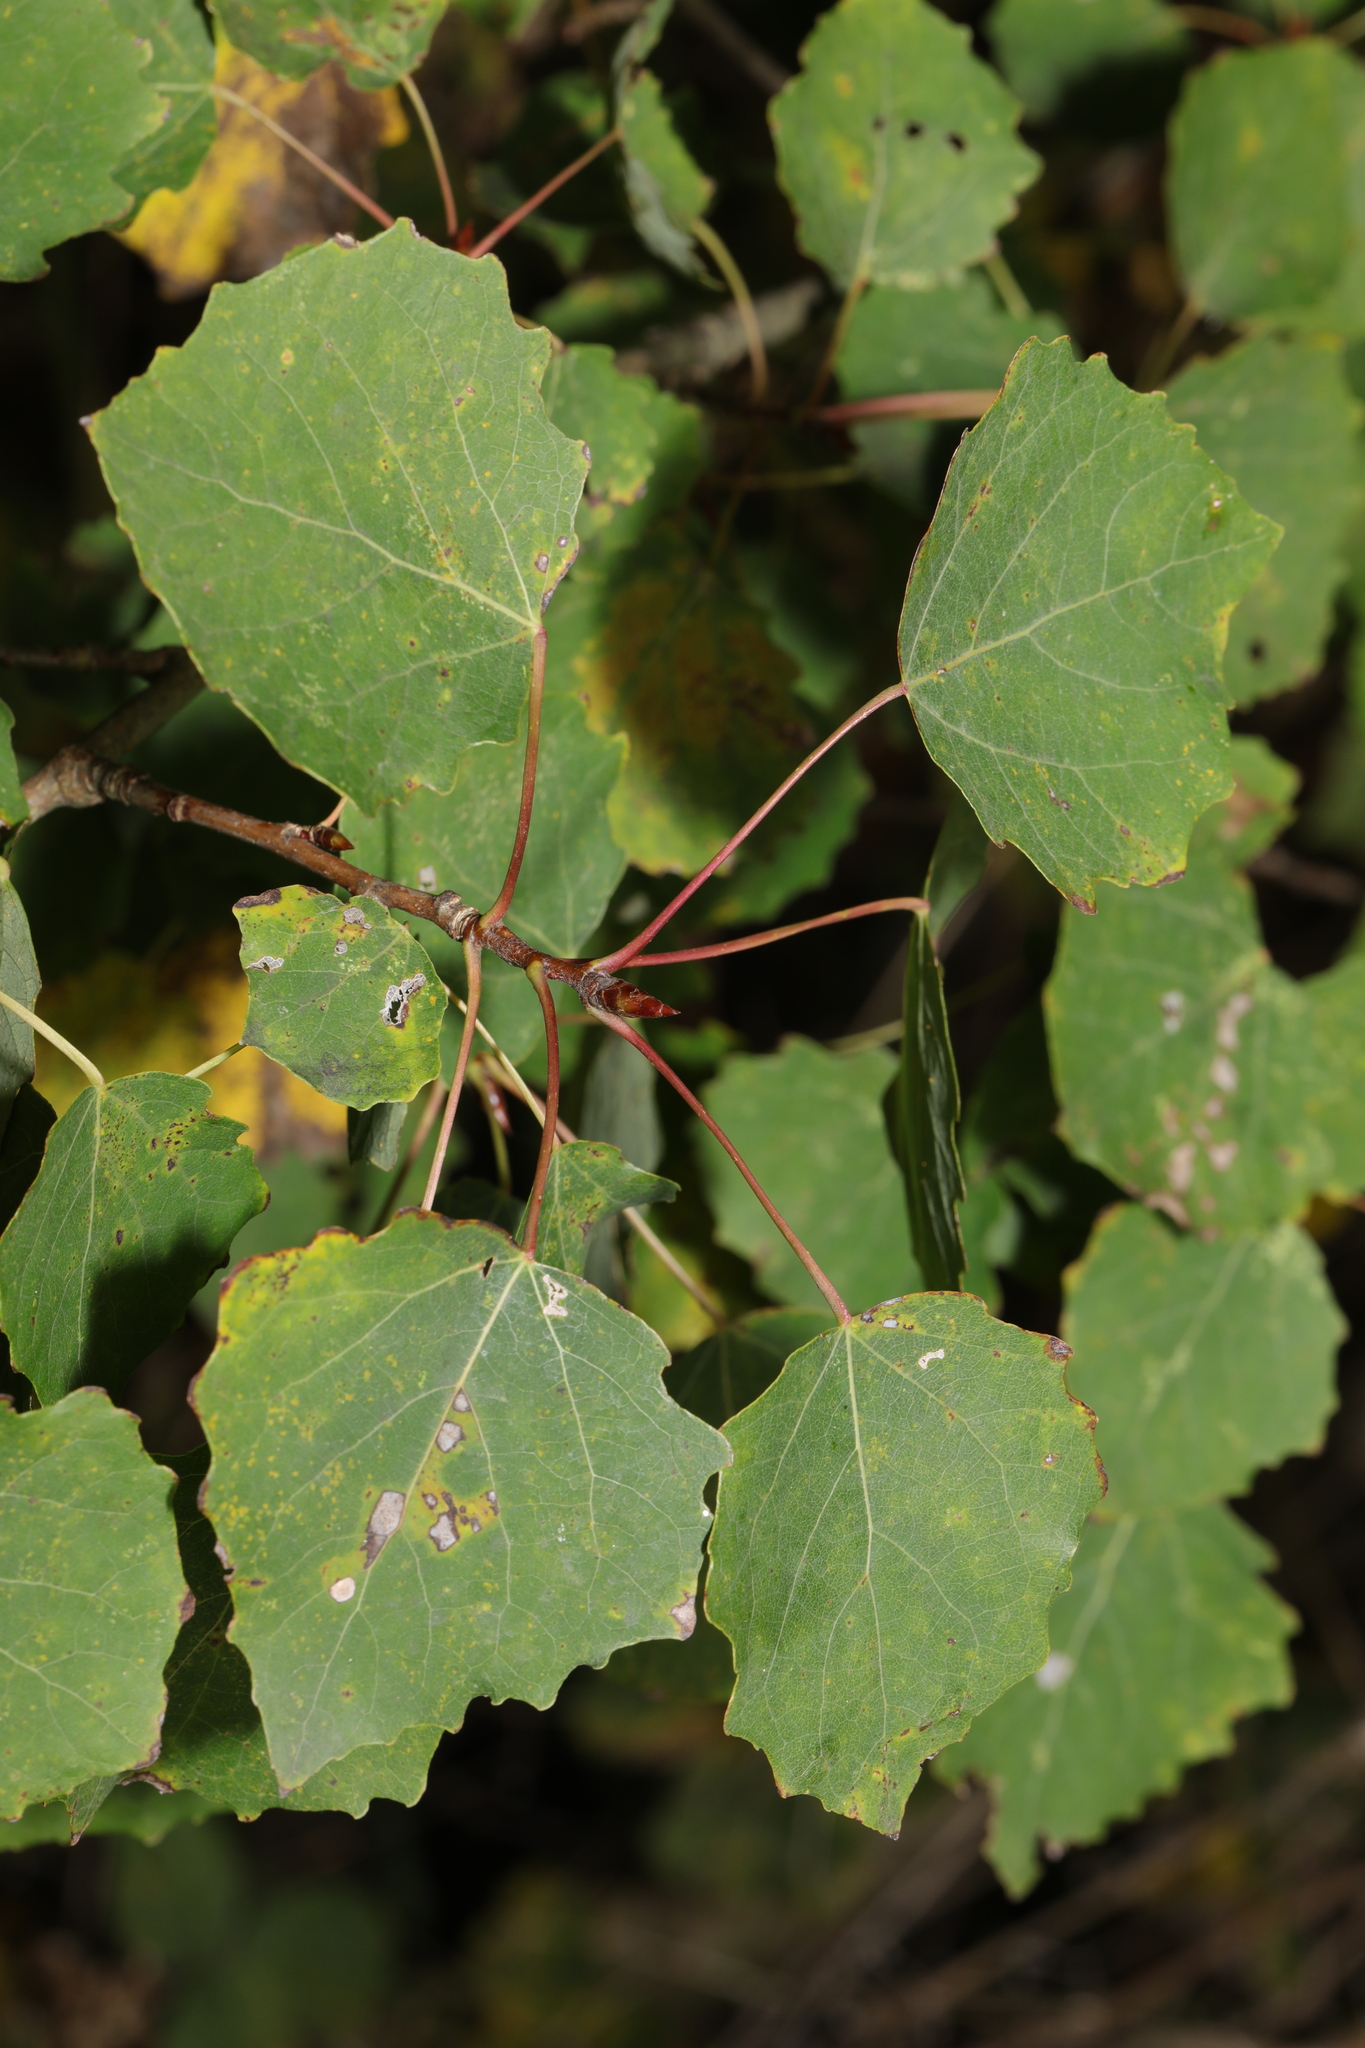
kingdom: Plantae
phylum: Tracheophyta
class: Magnoliopsida
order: Malpighiales
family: Salicaceae
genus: Populus
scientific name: Populus tremula
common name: European aspen
